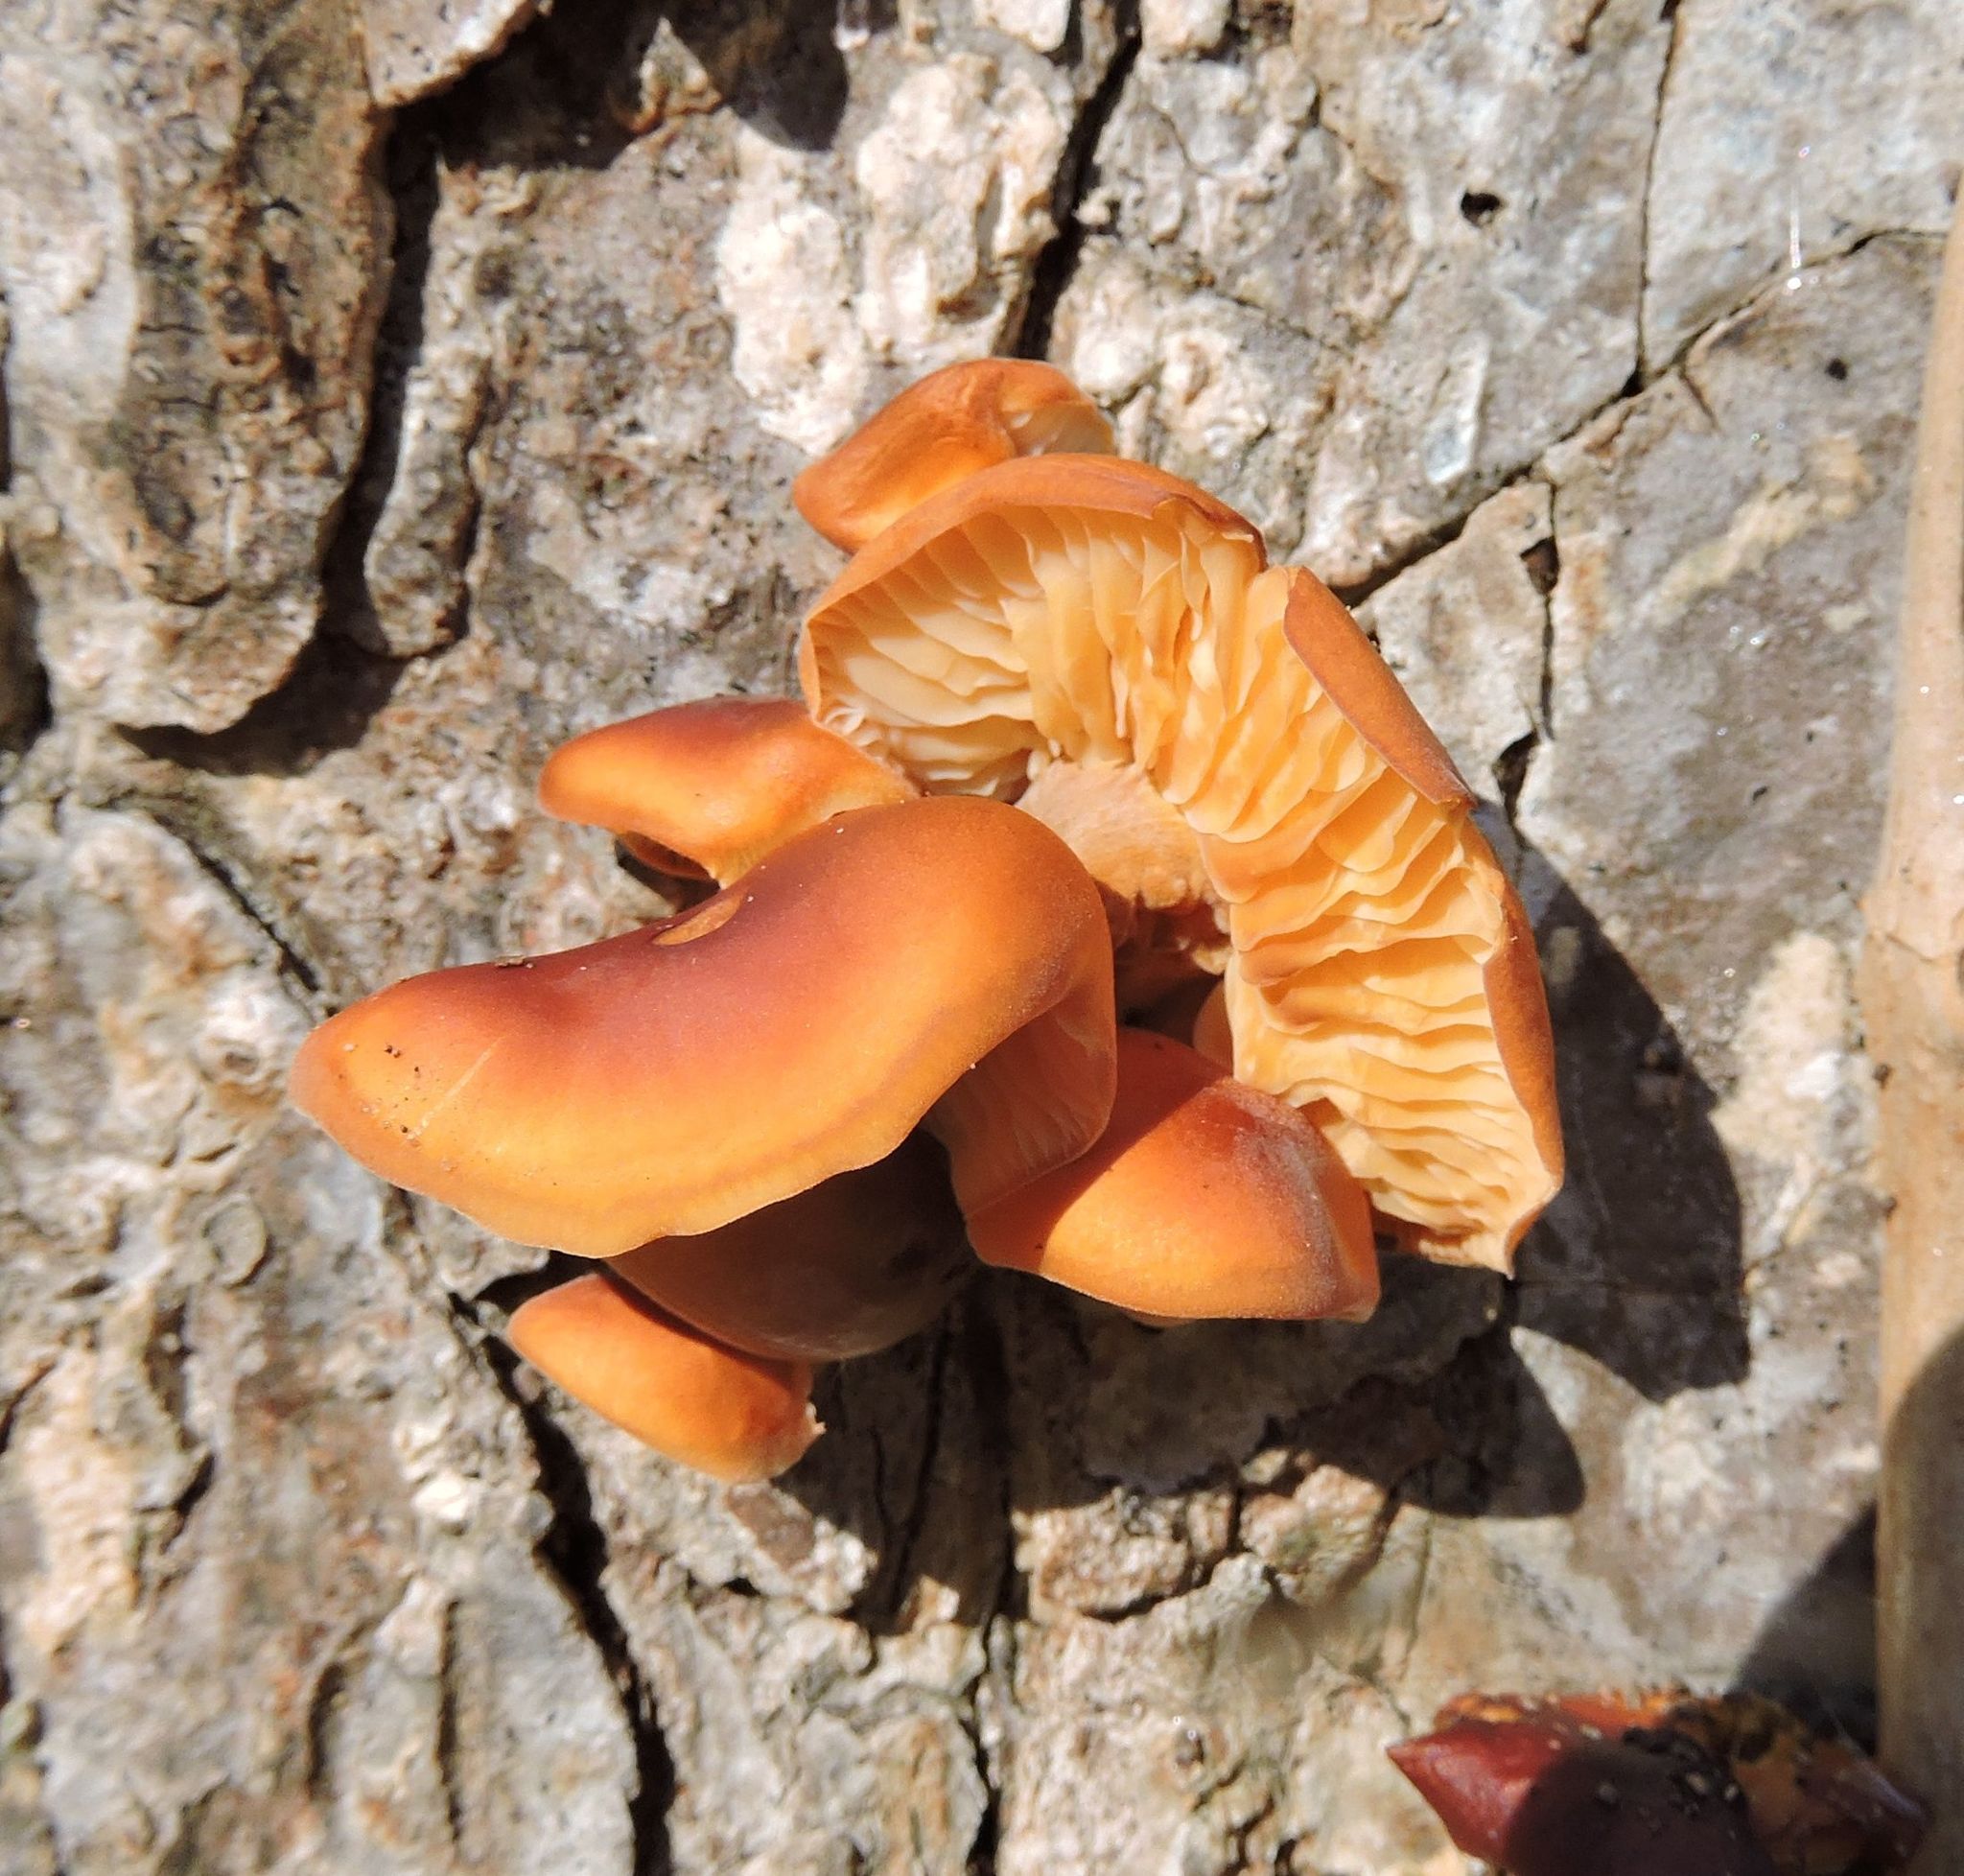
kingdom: Fungi
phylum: Basidiomycota
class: Agaricomycetes
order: Agaricales
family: Physalacriaceae
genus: Flammulina
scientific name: Flammulina velutipes
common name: Velvet shank
